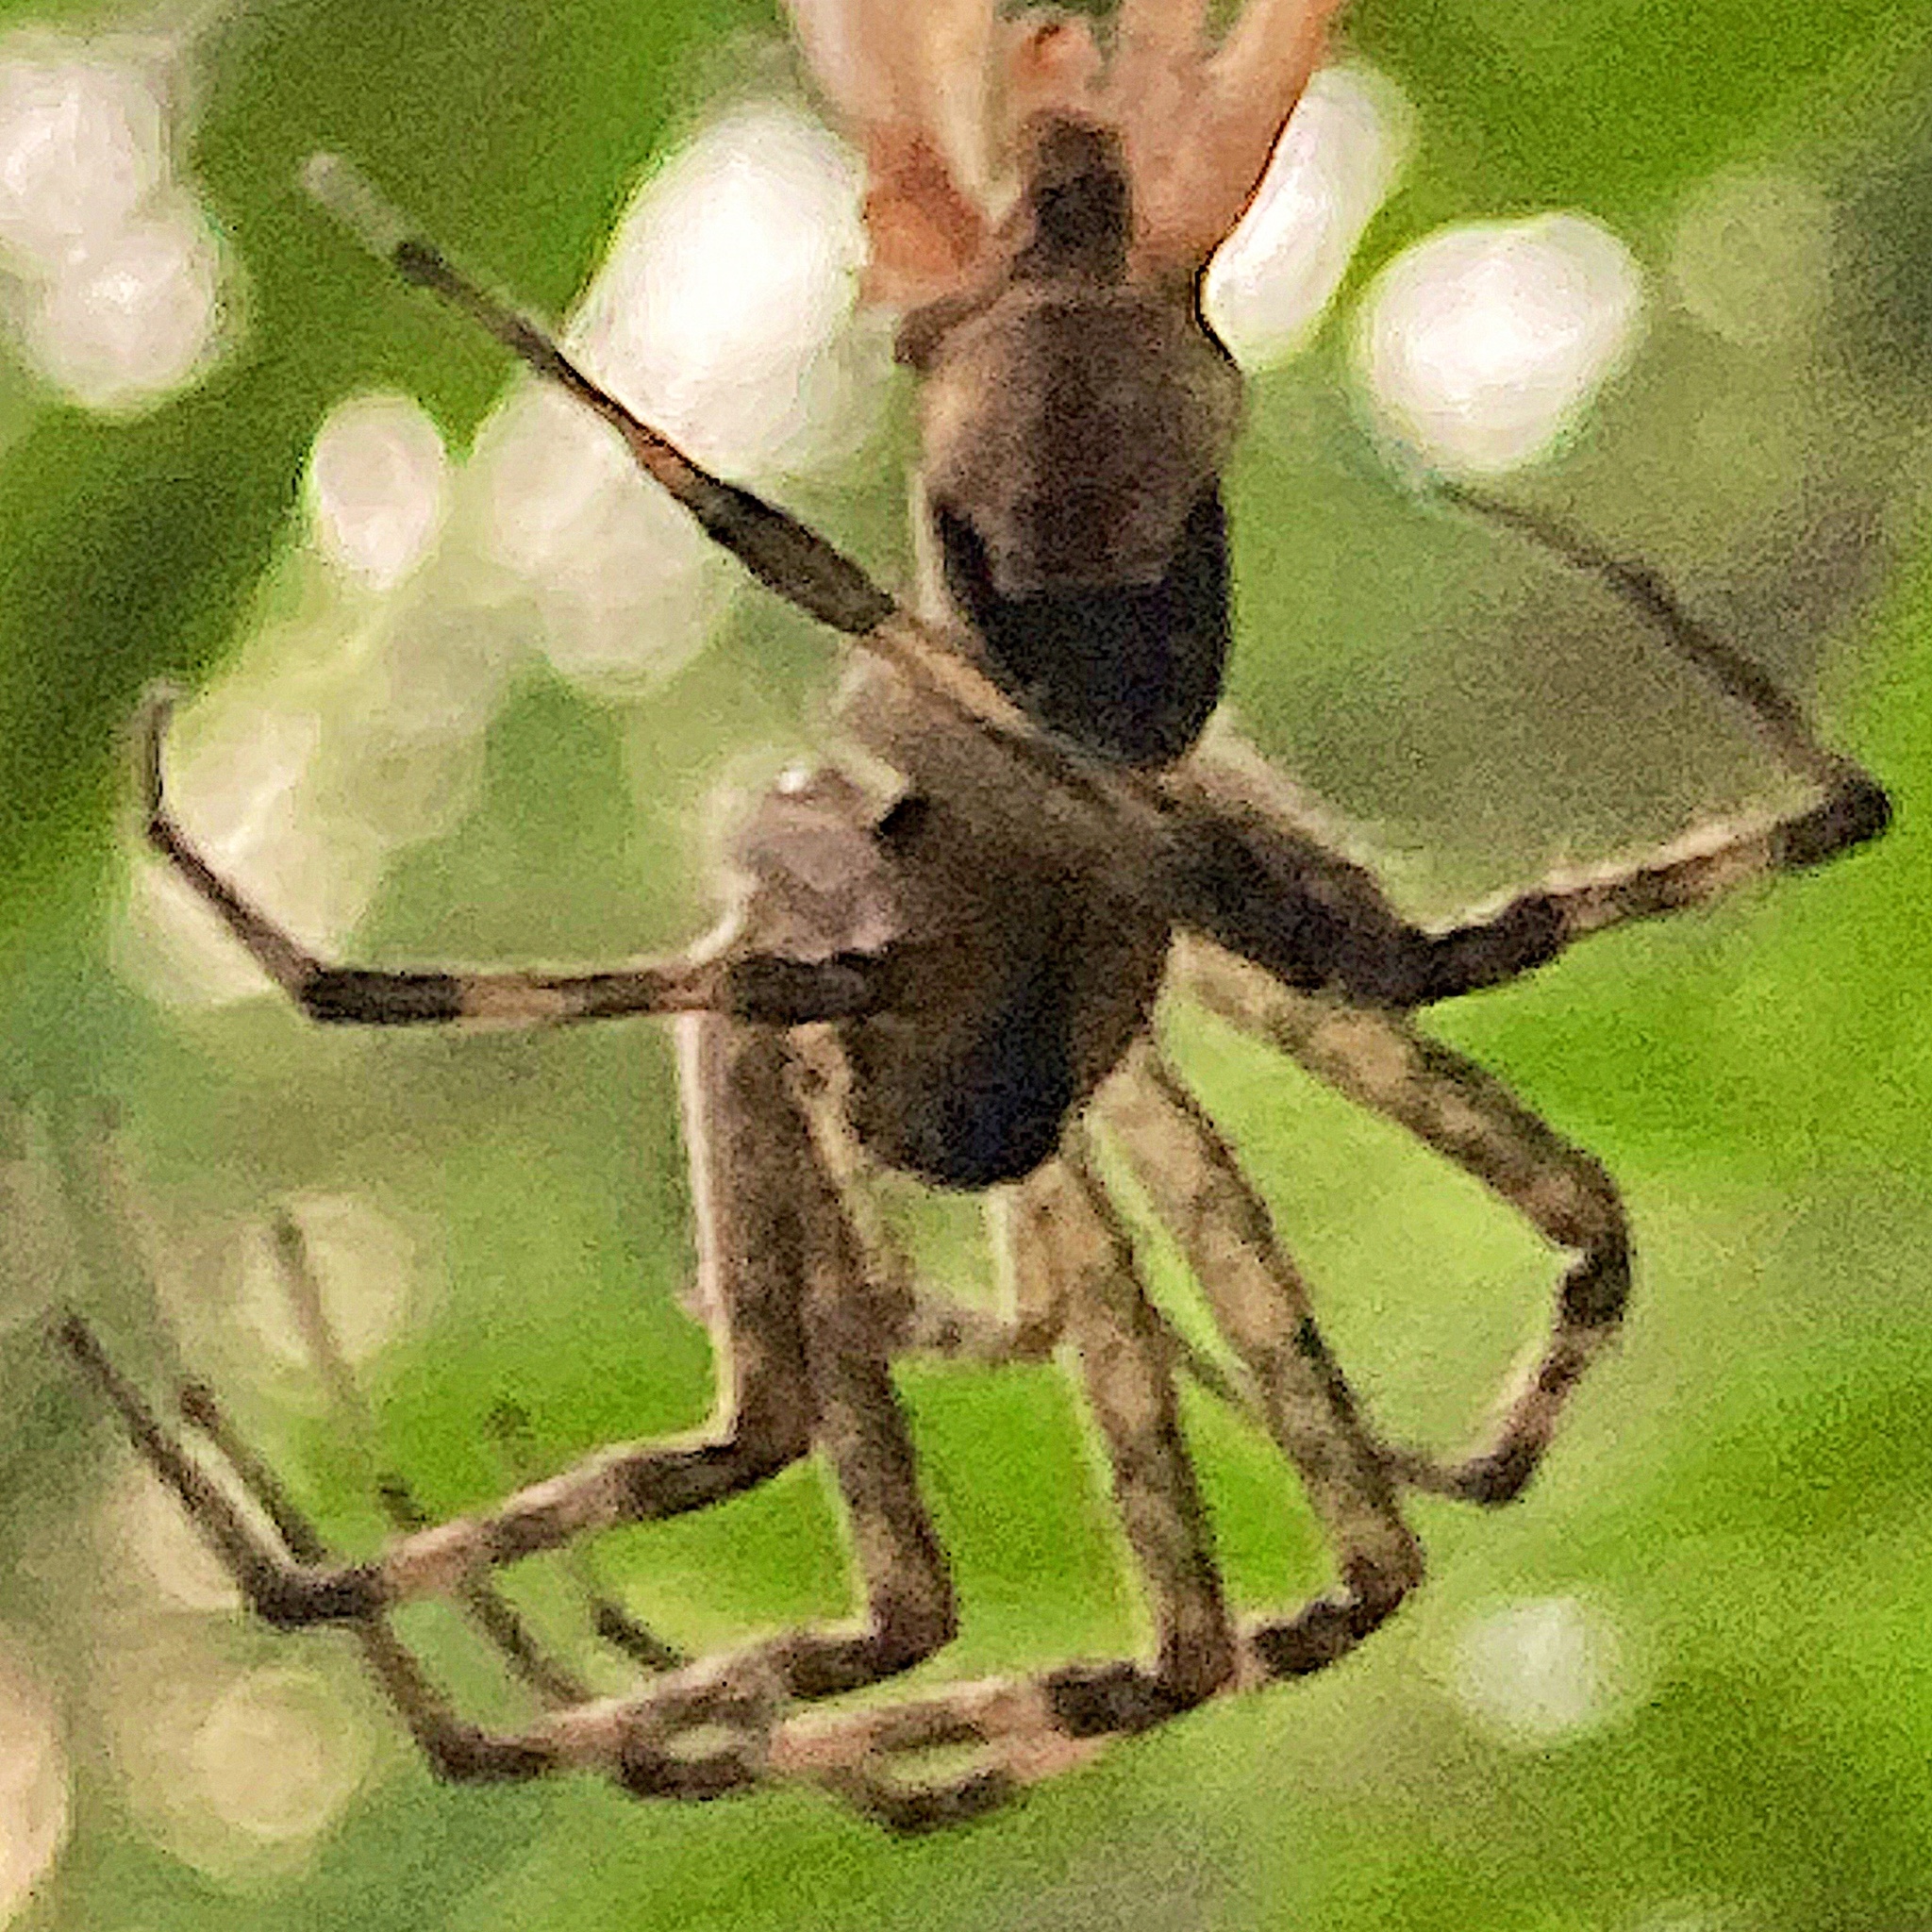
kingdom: Animalia
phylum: Arthropoda
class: Arachnida
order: Araneae
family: Pisauridae
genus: Pisaurina
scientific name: Pisaurina mira
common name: American nursery web spider
